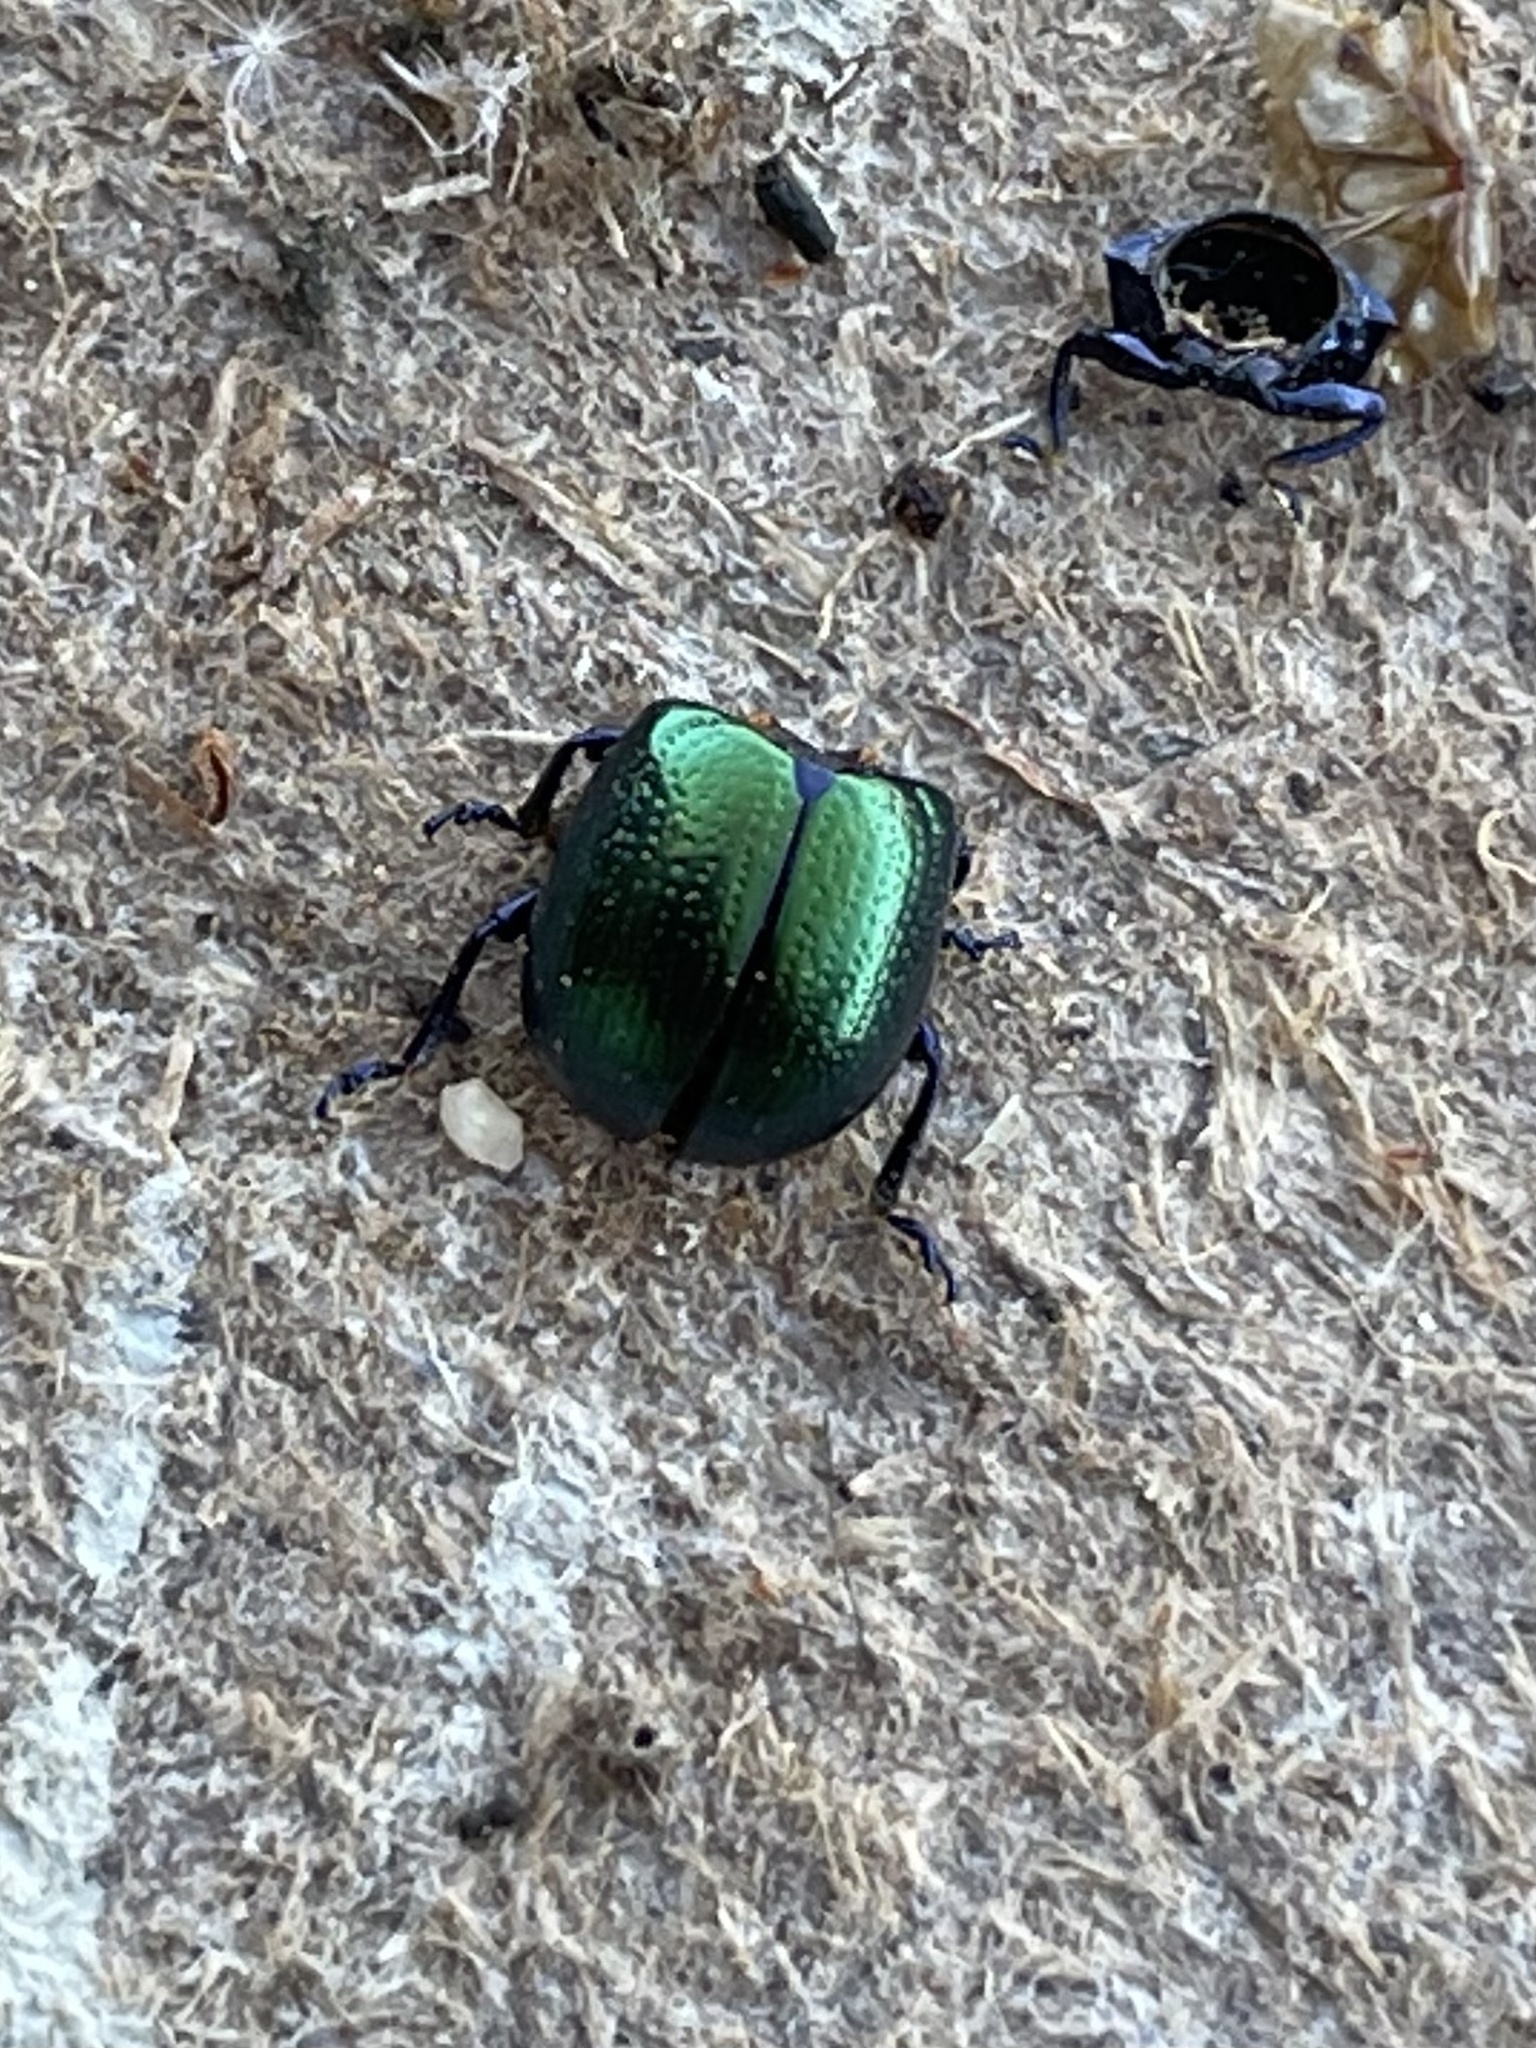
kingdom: Animalia
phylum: Arthropoda
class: Insecta
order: Coleoptera
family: Chrysomelidae
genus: Chrysolina
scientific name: Chrysolina auripennis
